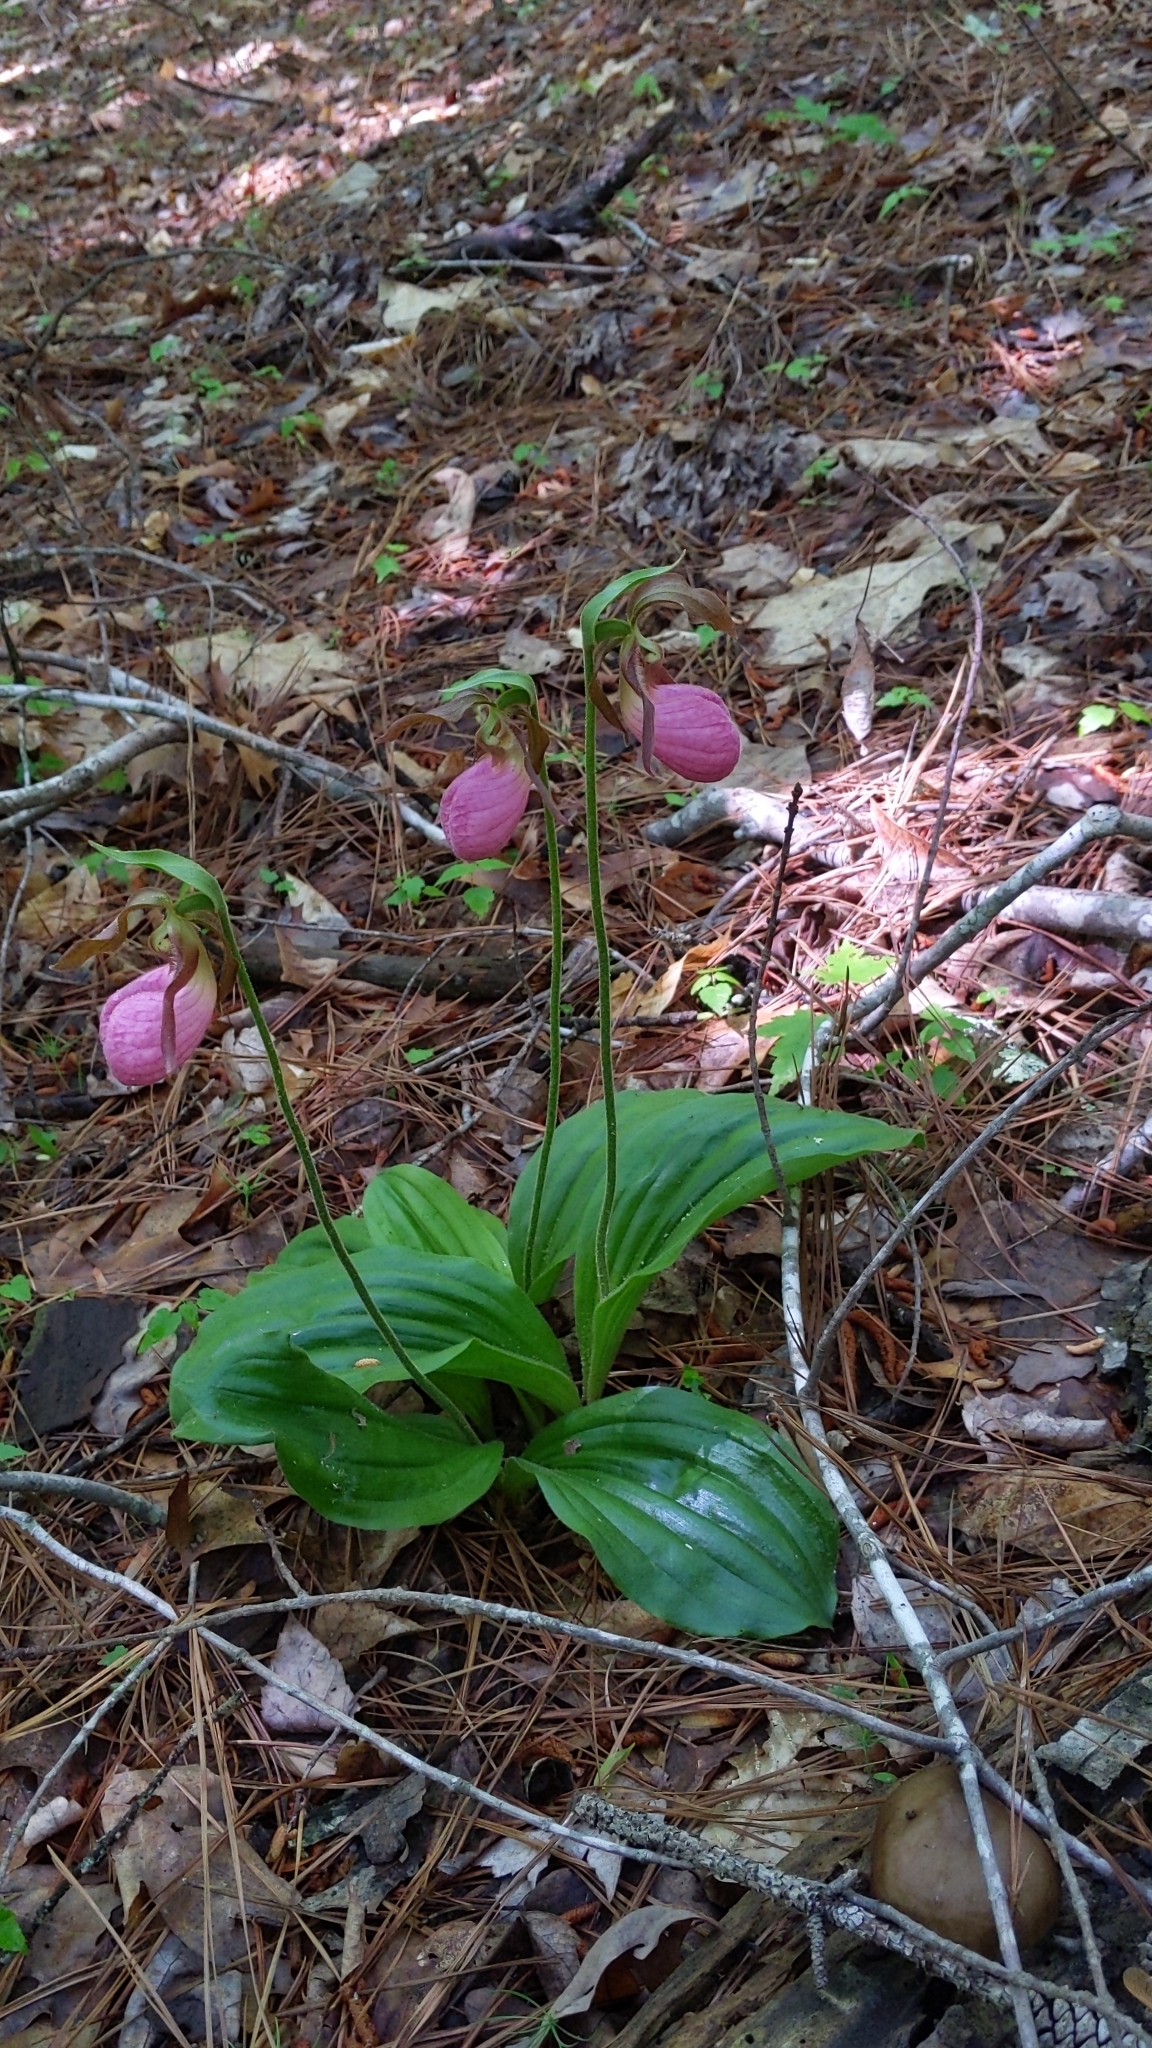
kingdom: Plantae
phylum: Tracheophyta
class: Liliopsida
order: Asparagales
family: Orchidaceae
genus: Cypripedium
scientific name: Cypripedium acaule
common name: Pink lady's-slipper
